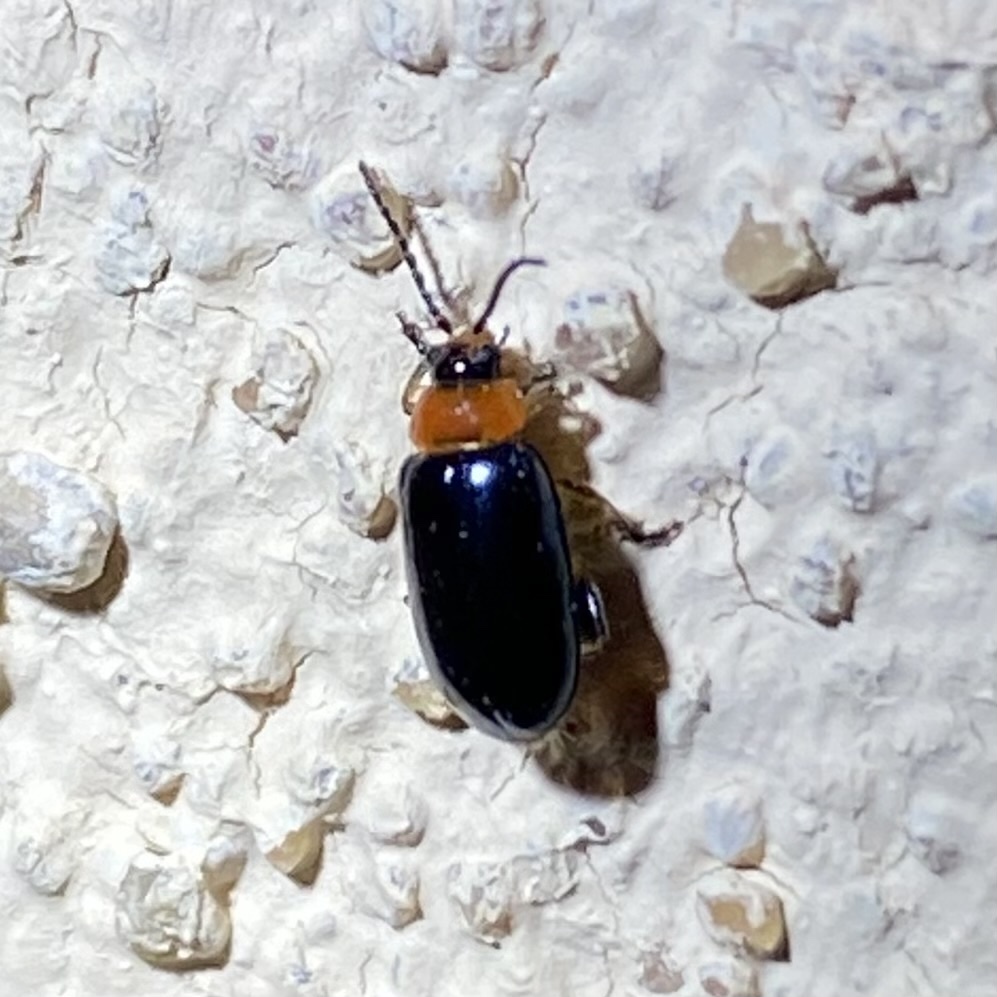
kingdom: Animalia
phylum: Arthropoda
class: Insecta
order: Coleoptera
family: Chrysomelidae
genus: Disonycha
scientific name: Disonycha politula
